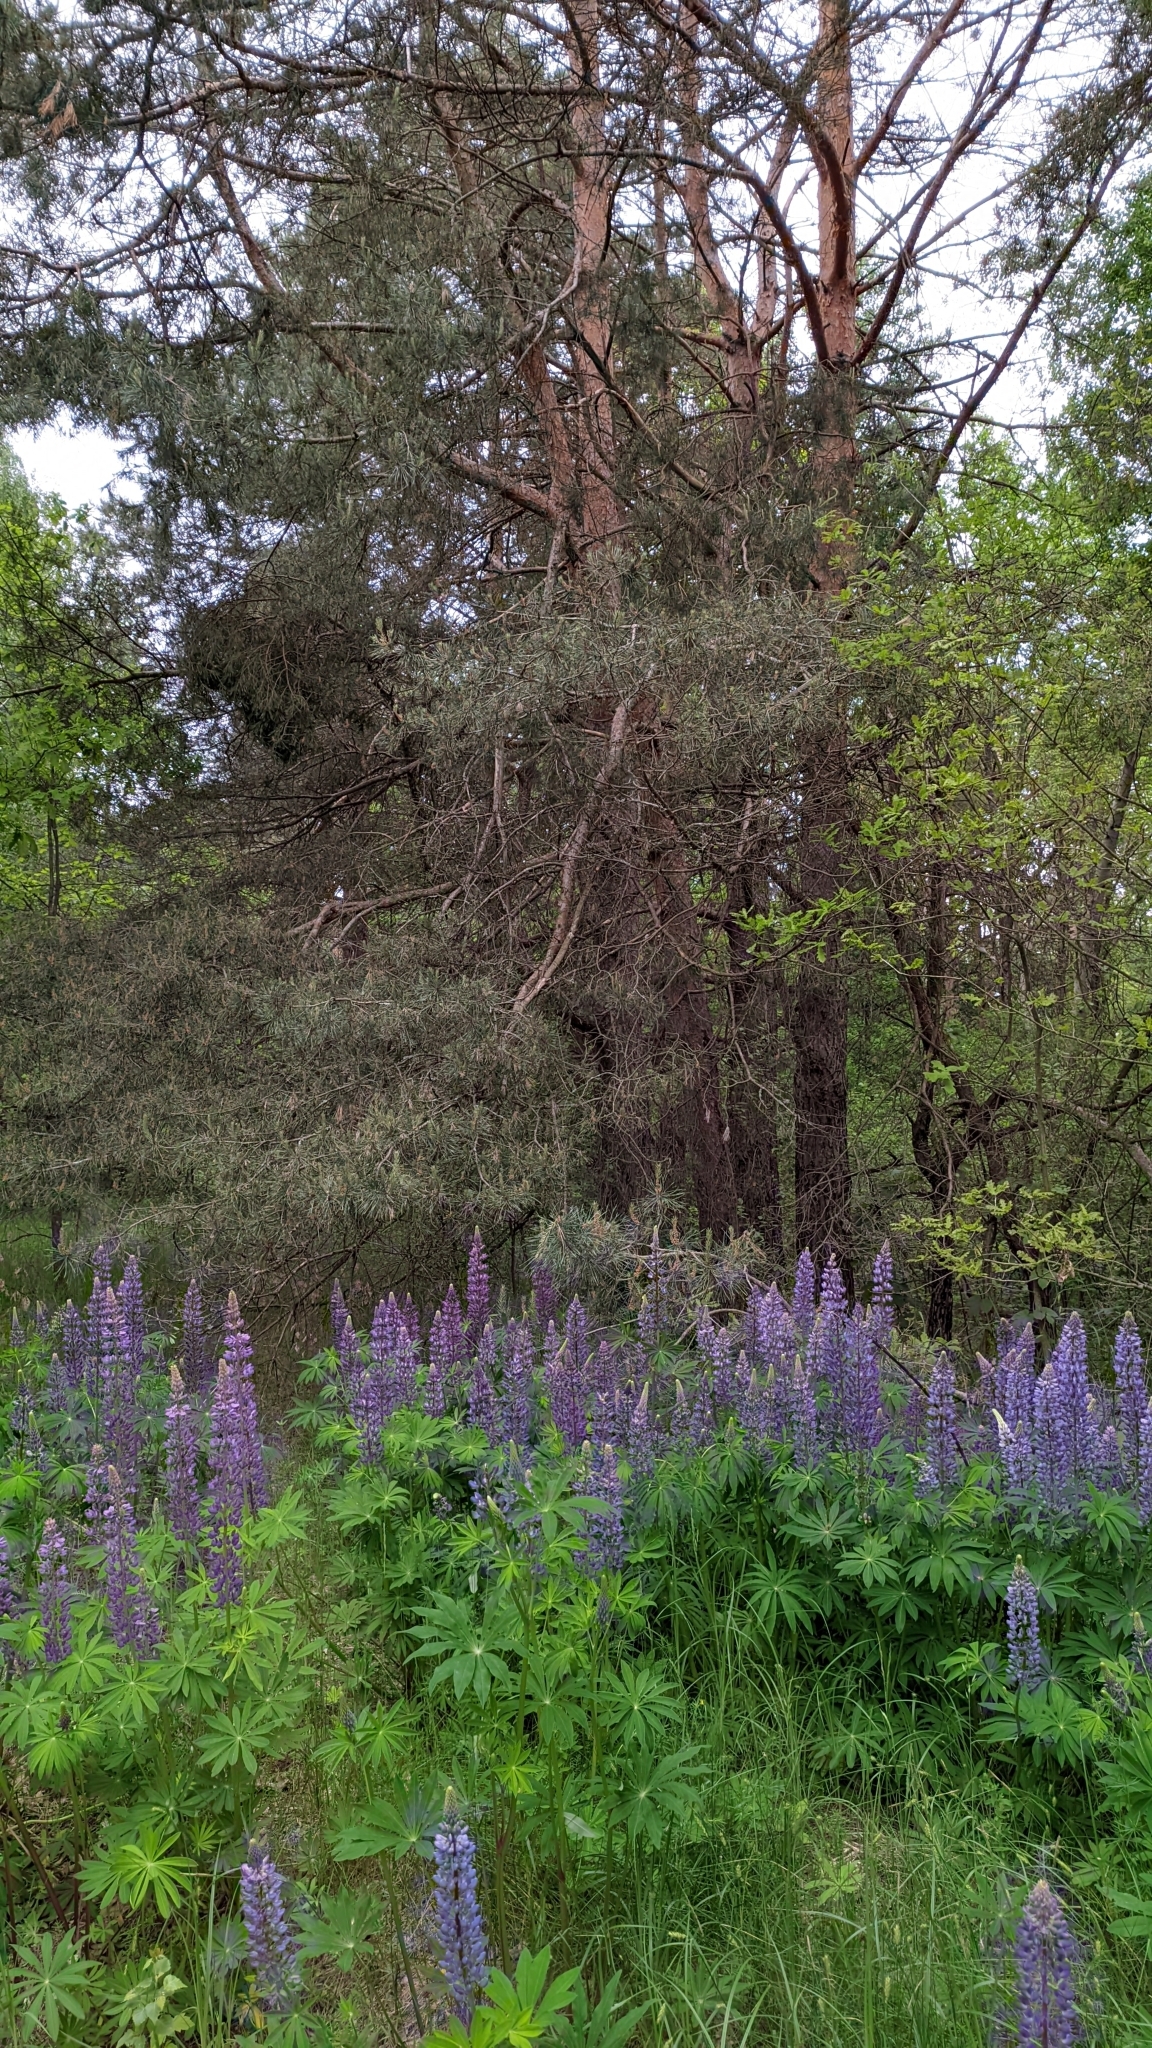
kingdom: Plantae
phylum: Tracheophyta
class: Magnoliopsida
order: Fabales
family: Fabaceae
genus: Lupinus
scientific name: Lupinus polyphyllus
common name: Garden lupin
